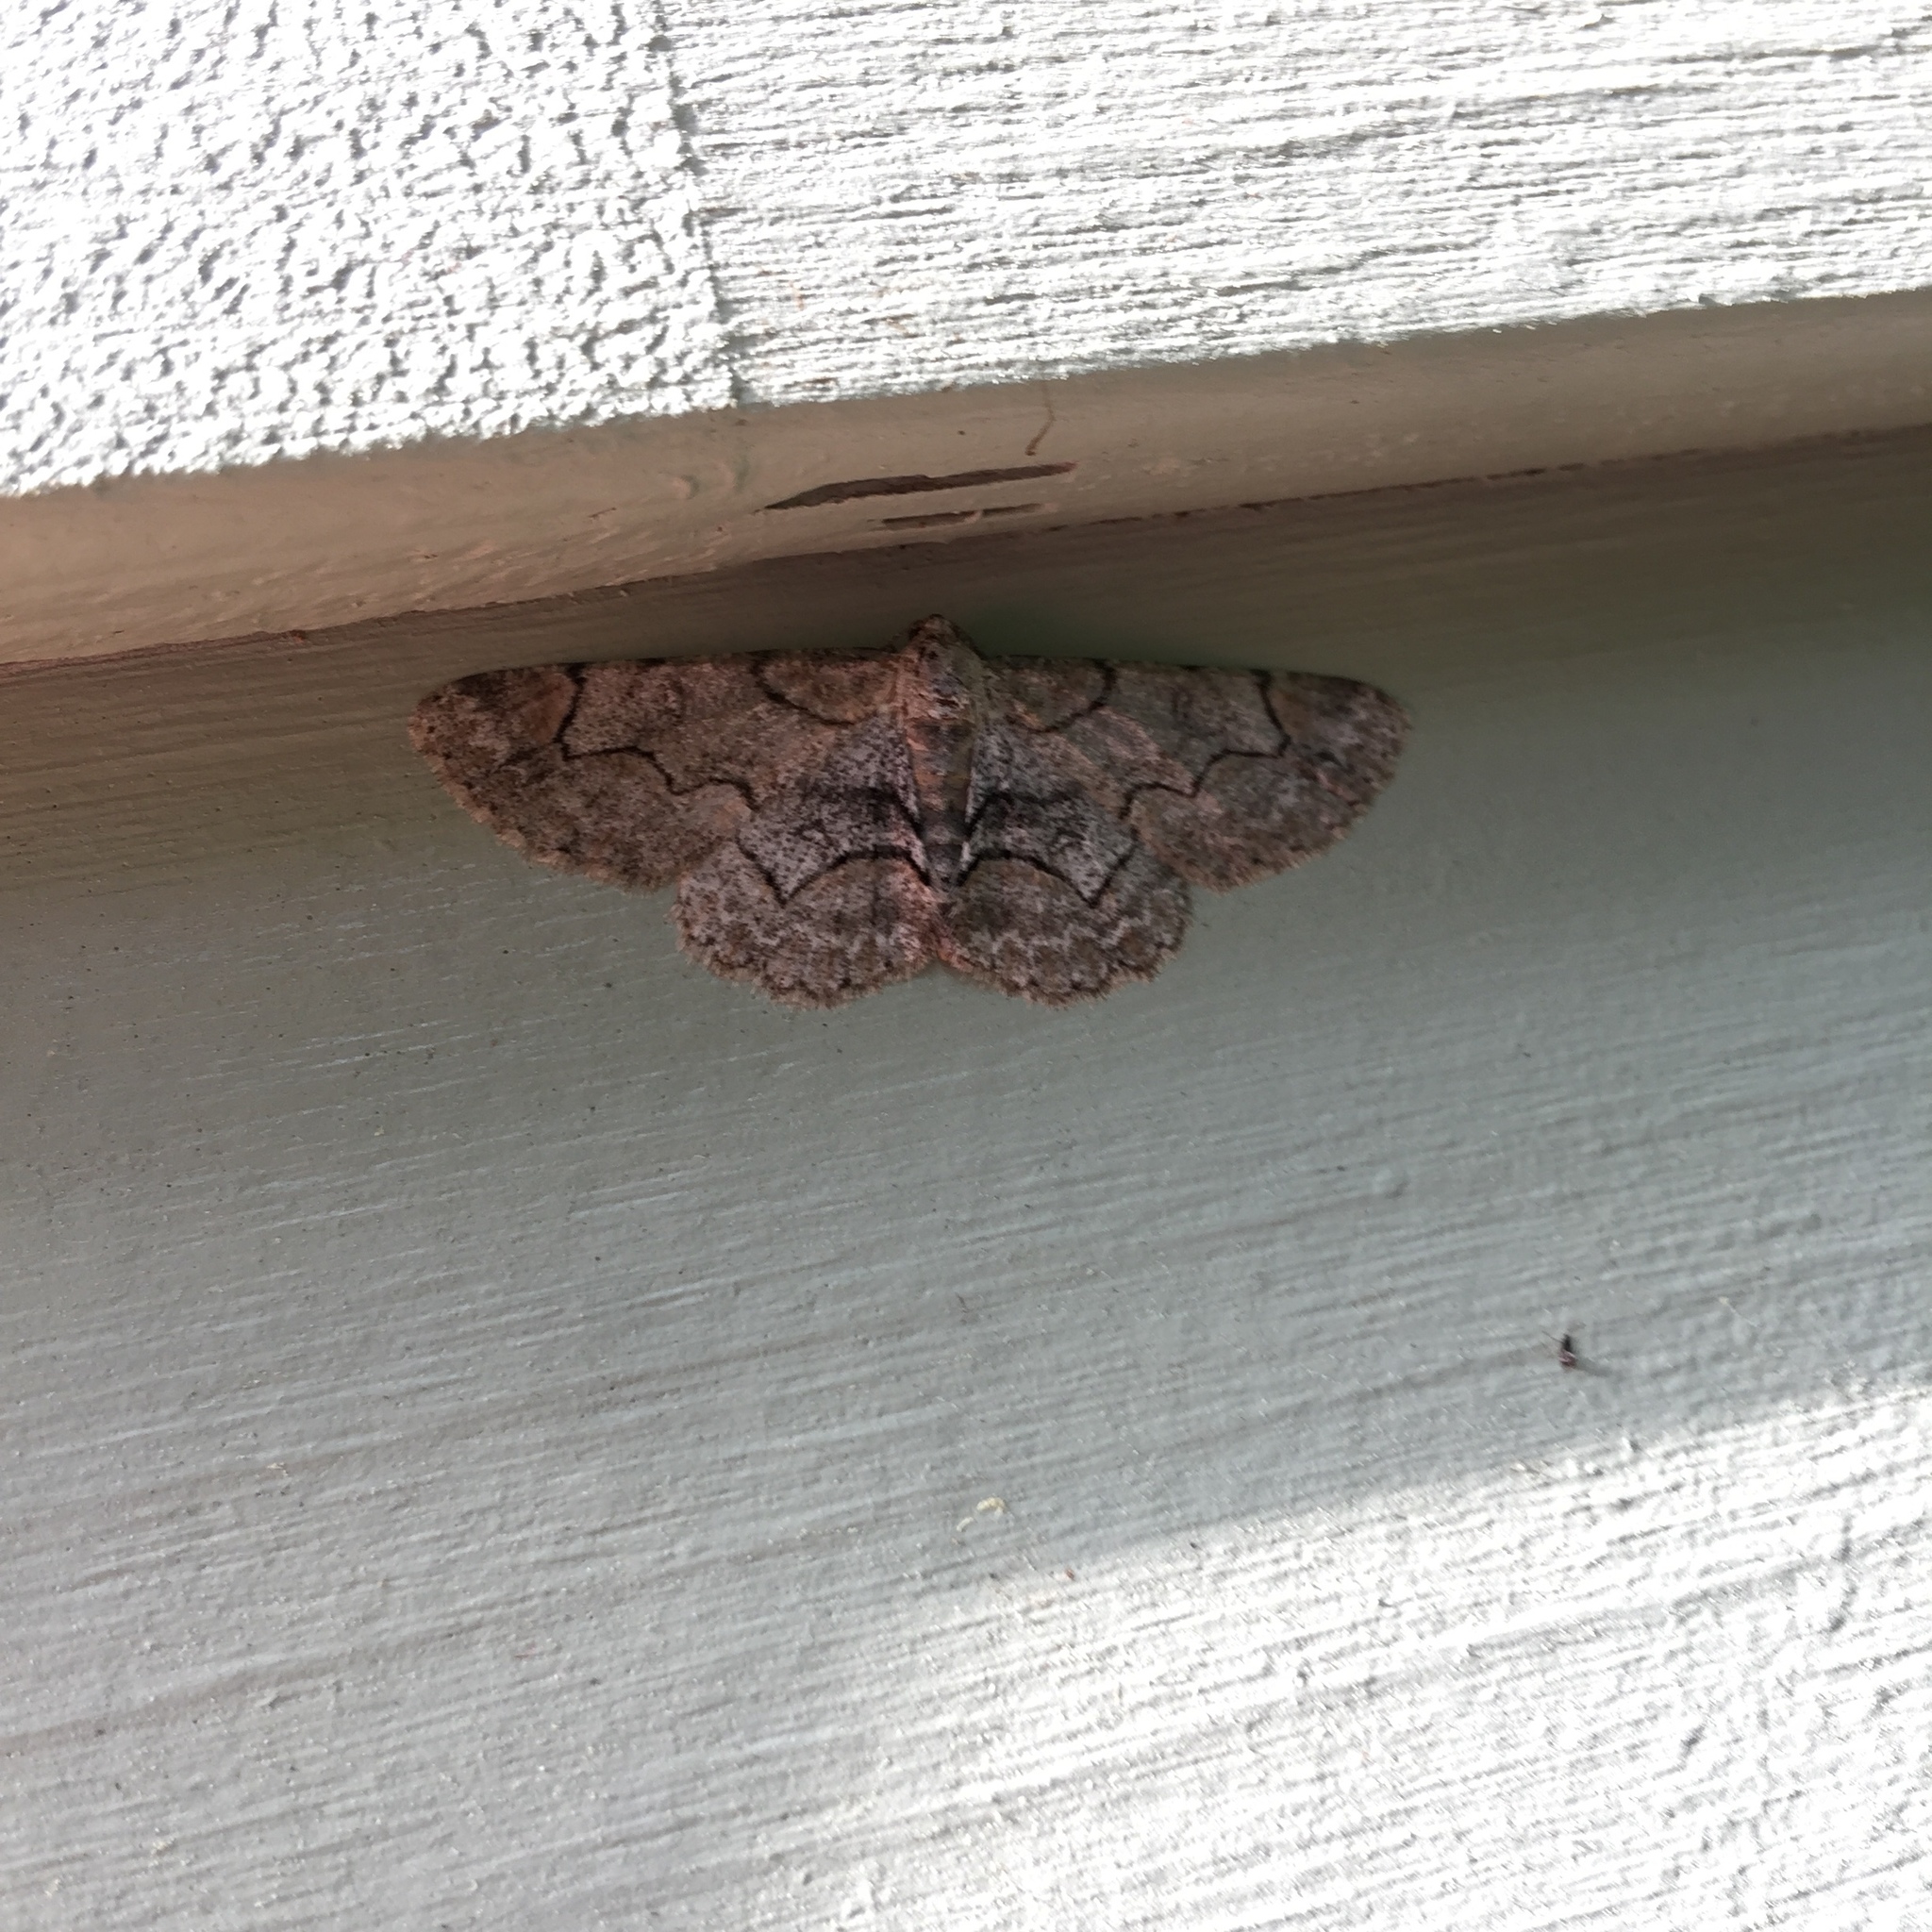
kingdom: Animalia
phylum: Arthropoda
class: Insecta
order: Lepidoptera
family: Geometridae
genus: Iridopsis
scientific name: Iridopsis larvaria
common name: Bent-line gray
